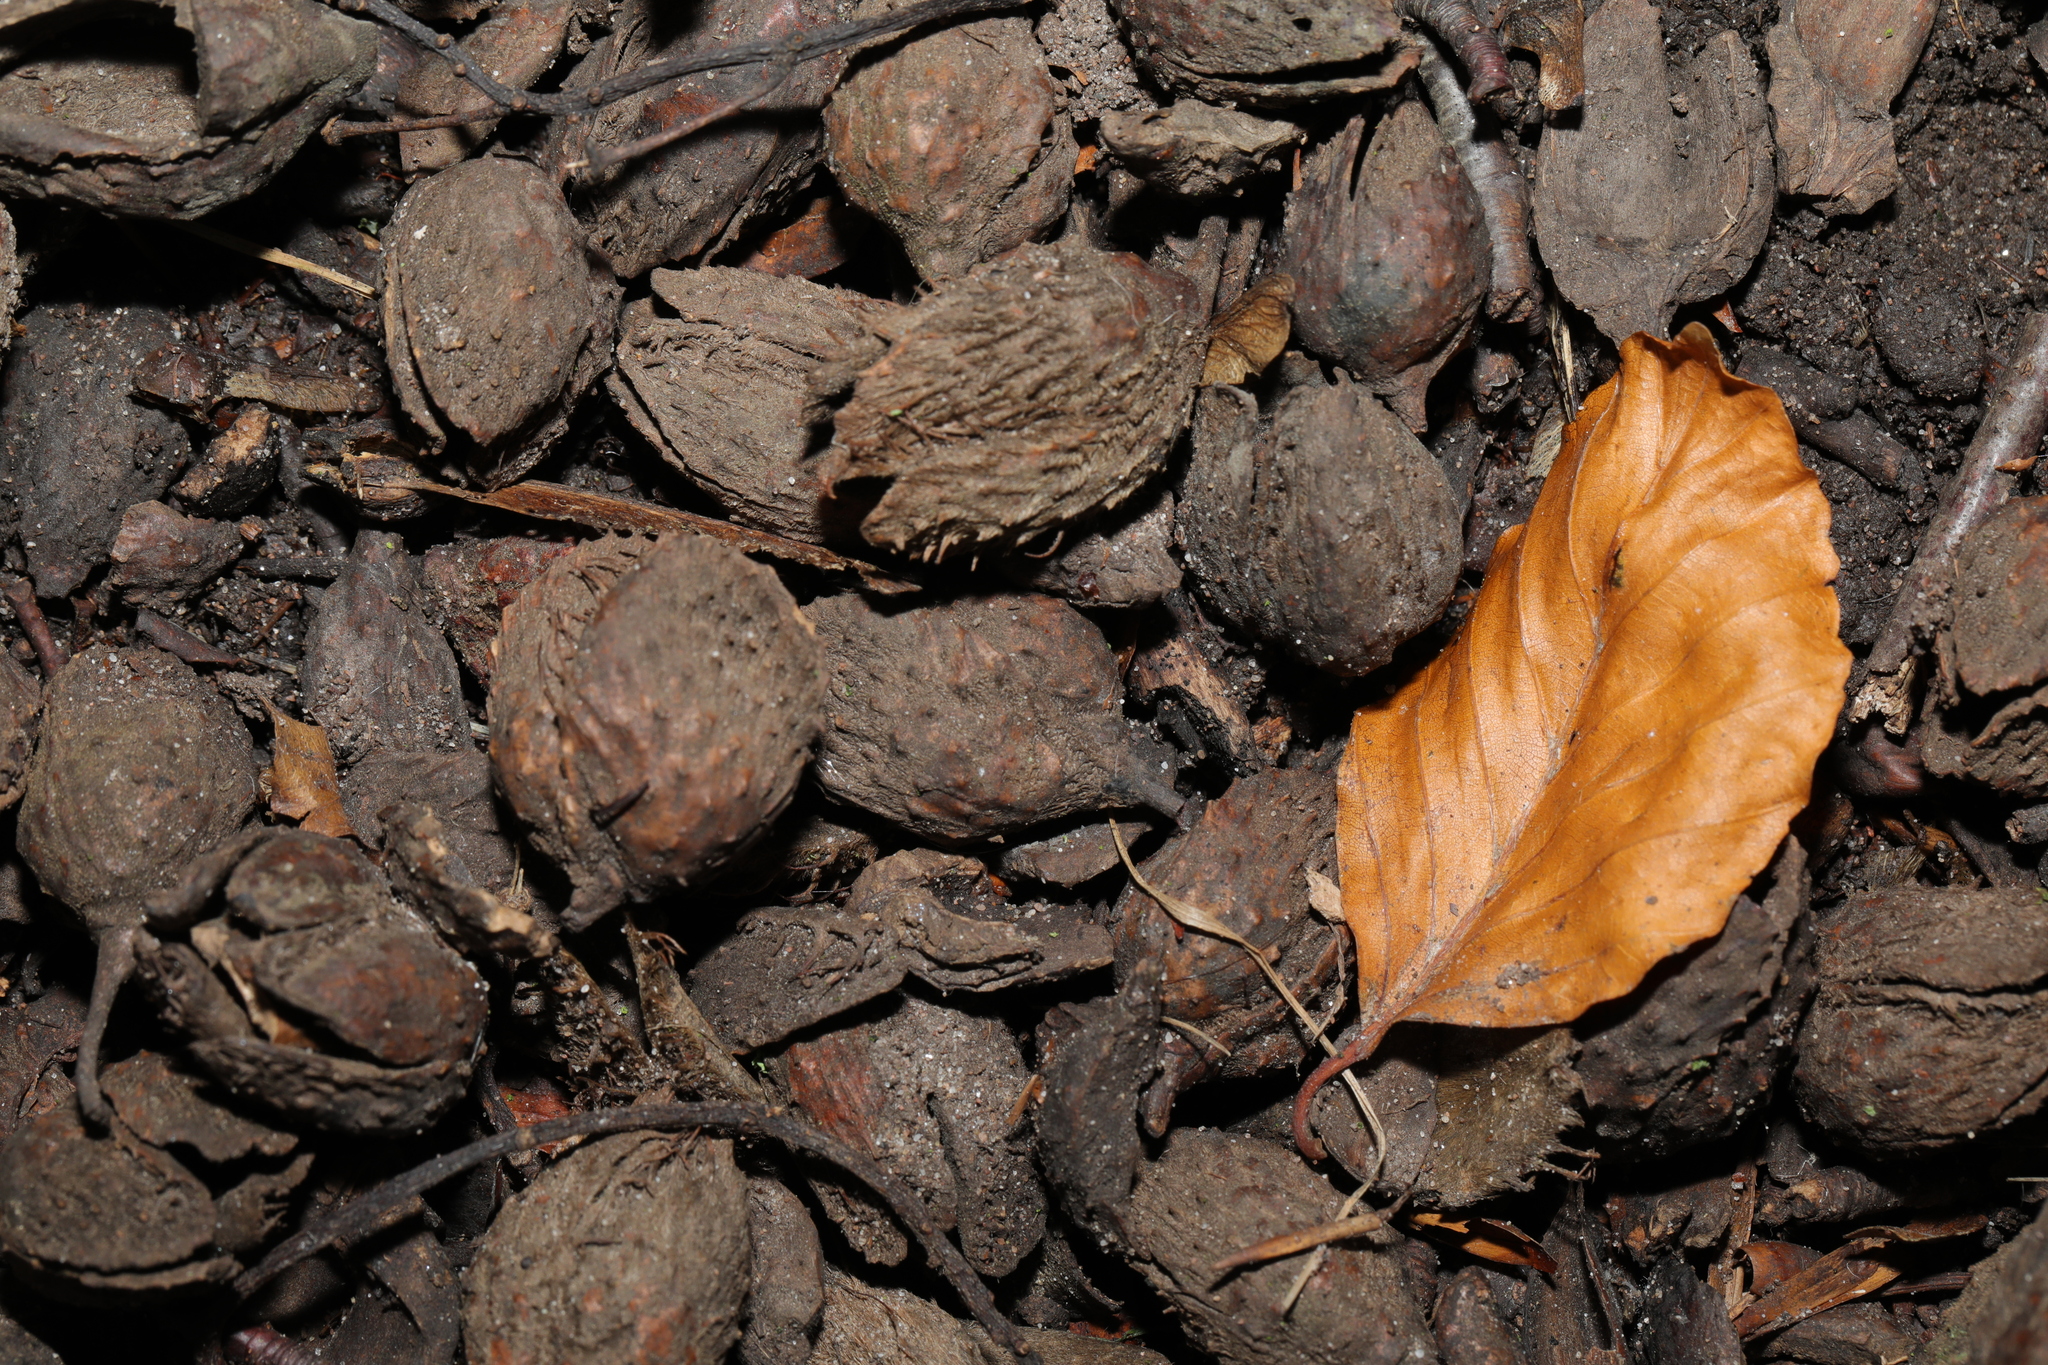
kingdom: Plantae
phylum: Tracheophyta
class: Magnoliopsida
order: Fagales
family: Fagaceae
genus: Fagus
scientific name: Fagus sylvatica
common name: Beech
